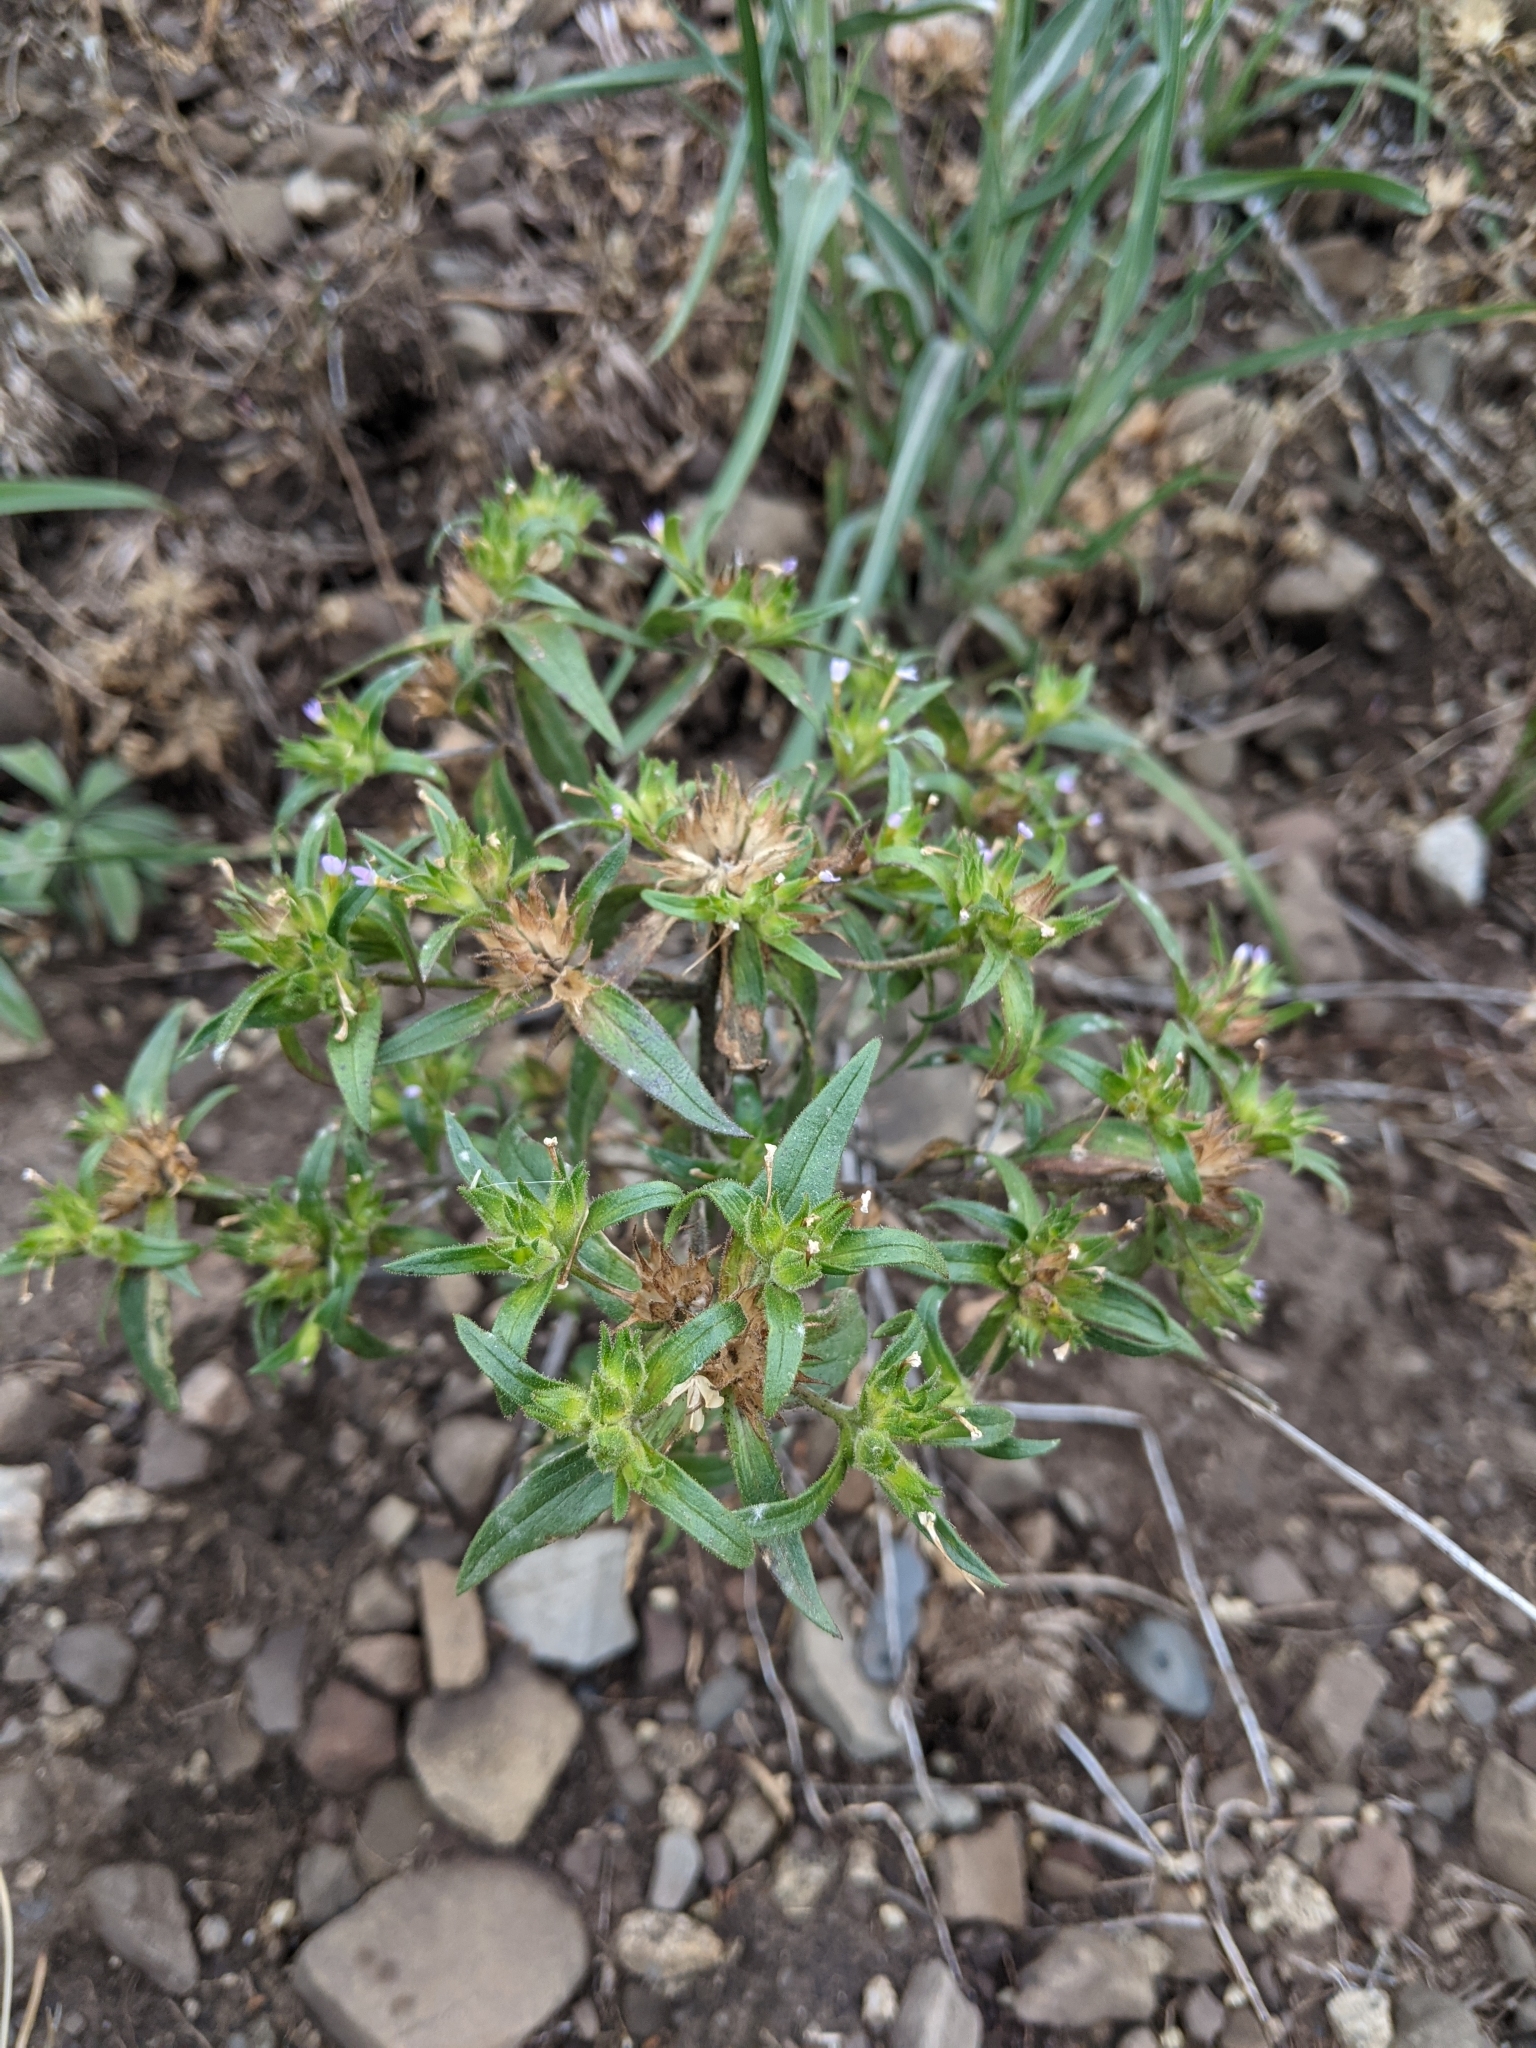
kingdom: Plantae
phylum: Tracheophyta
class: Magnoliopsida
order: Ericales
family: Polemoniaceae
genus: Collomia
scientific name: Collomia linearis
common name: Tiny trumpet
